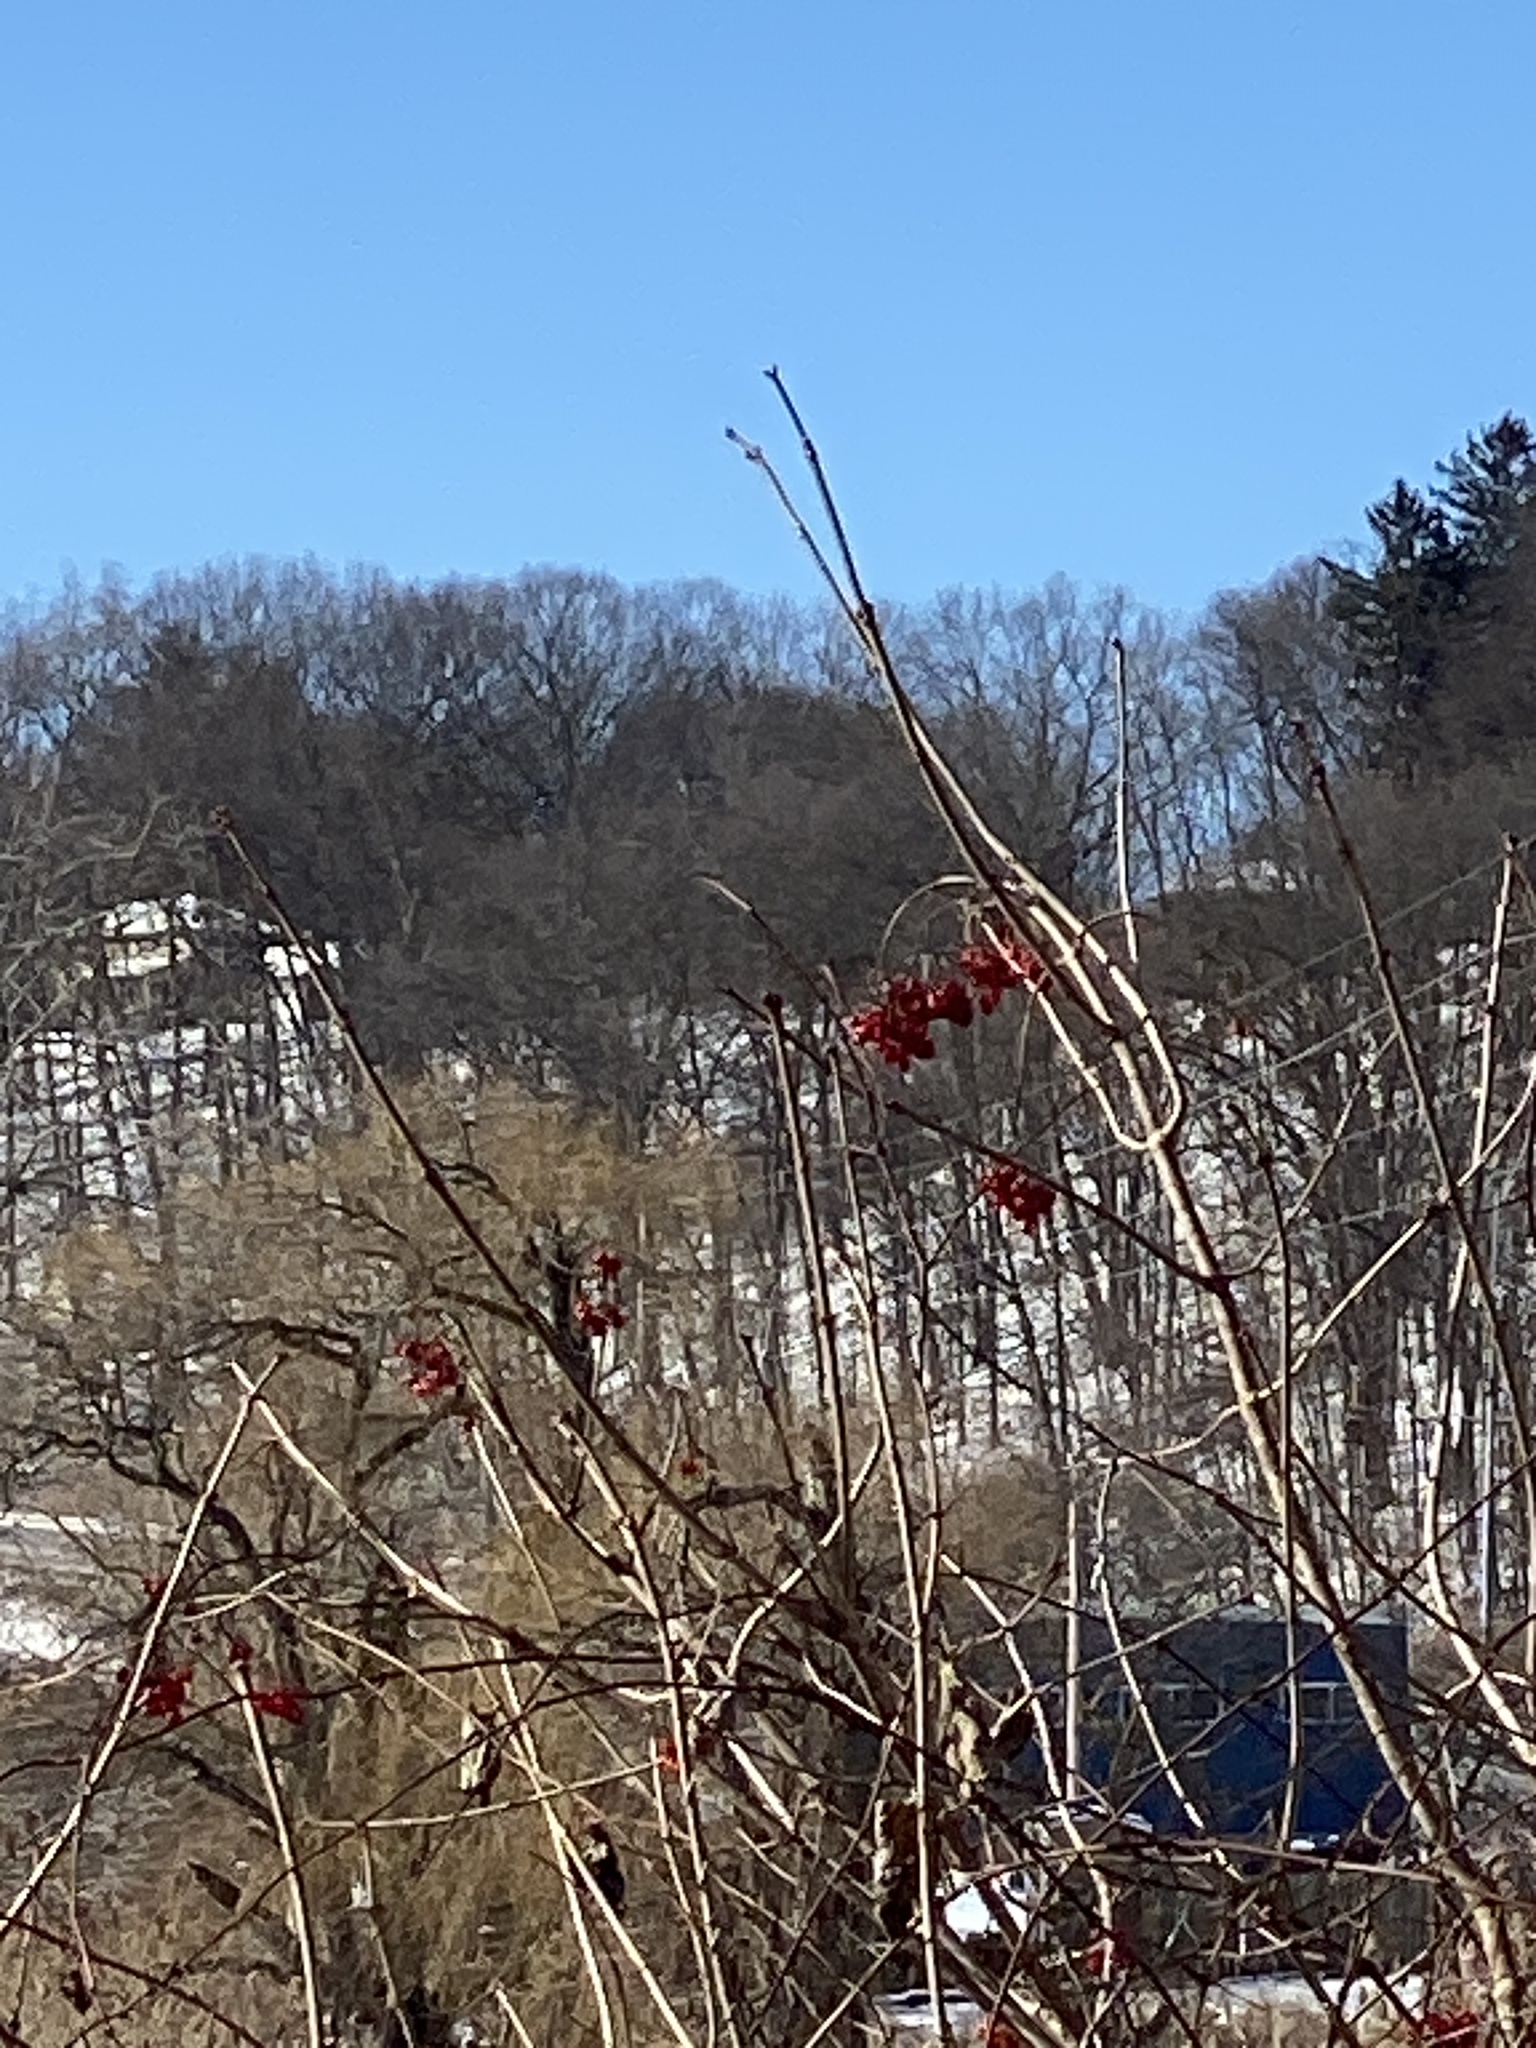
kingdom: Plantae
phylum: Tracheophyta
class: Magnoliopsida
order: Dipsacales
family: Viburnaceae
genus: Viburnum
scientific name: Viburnum opulus
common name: Guelder-rose
